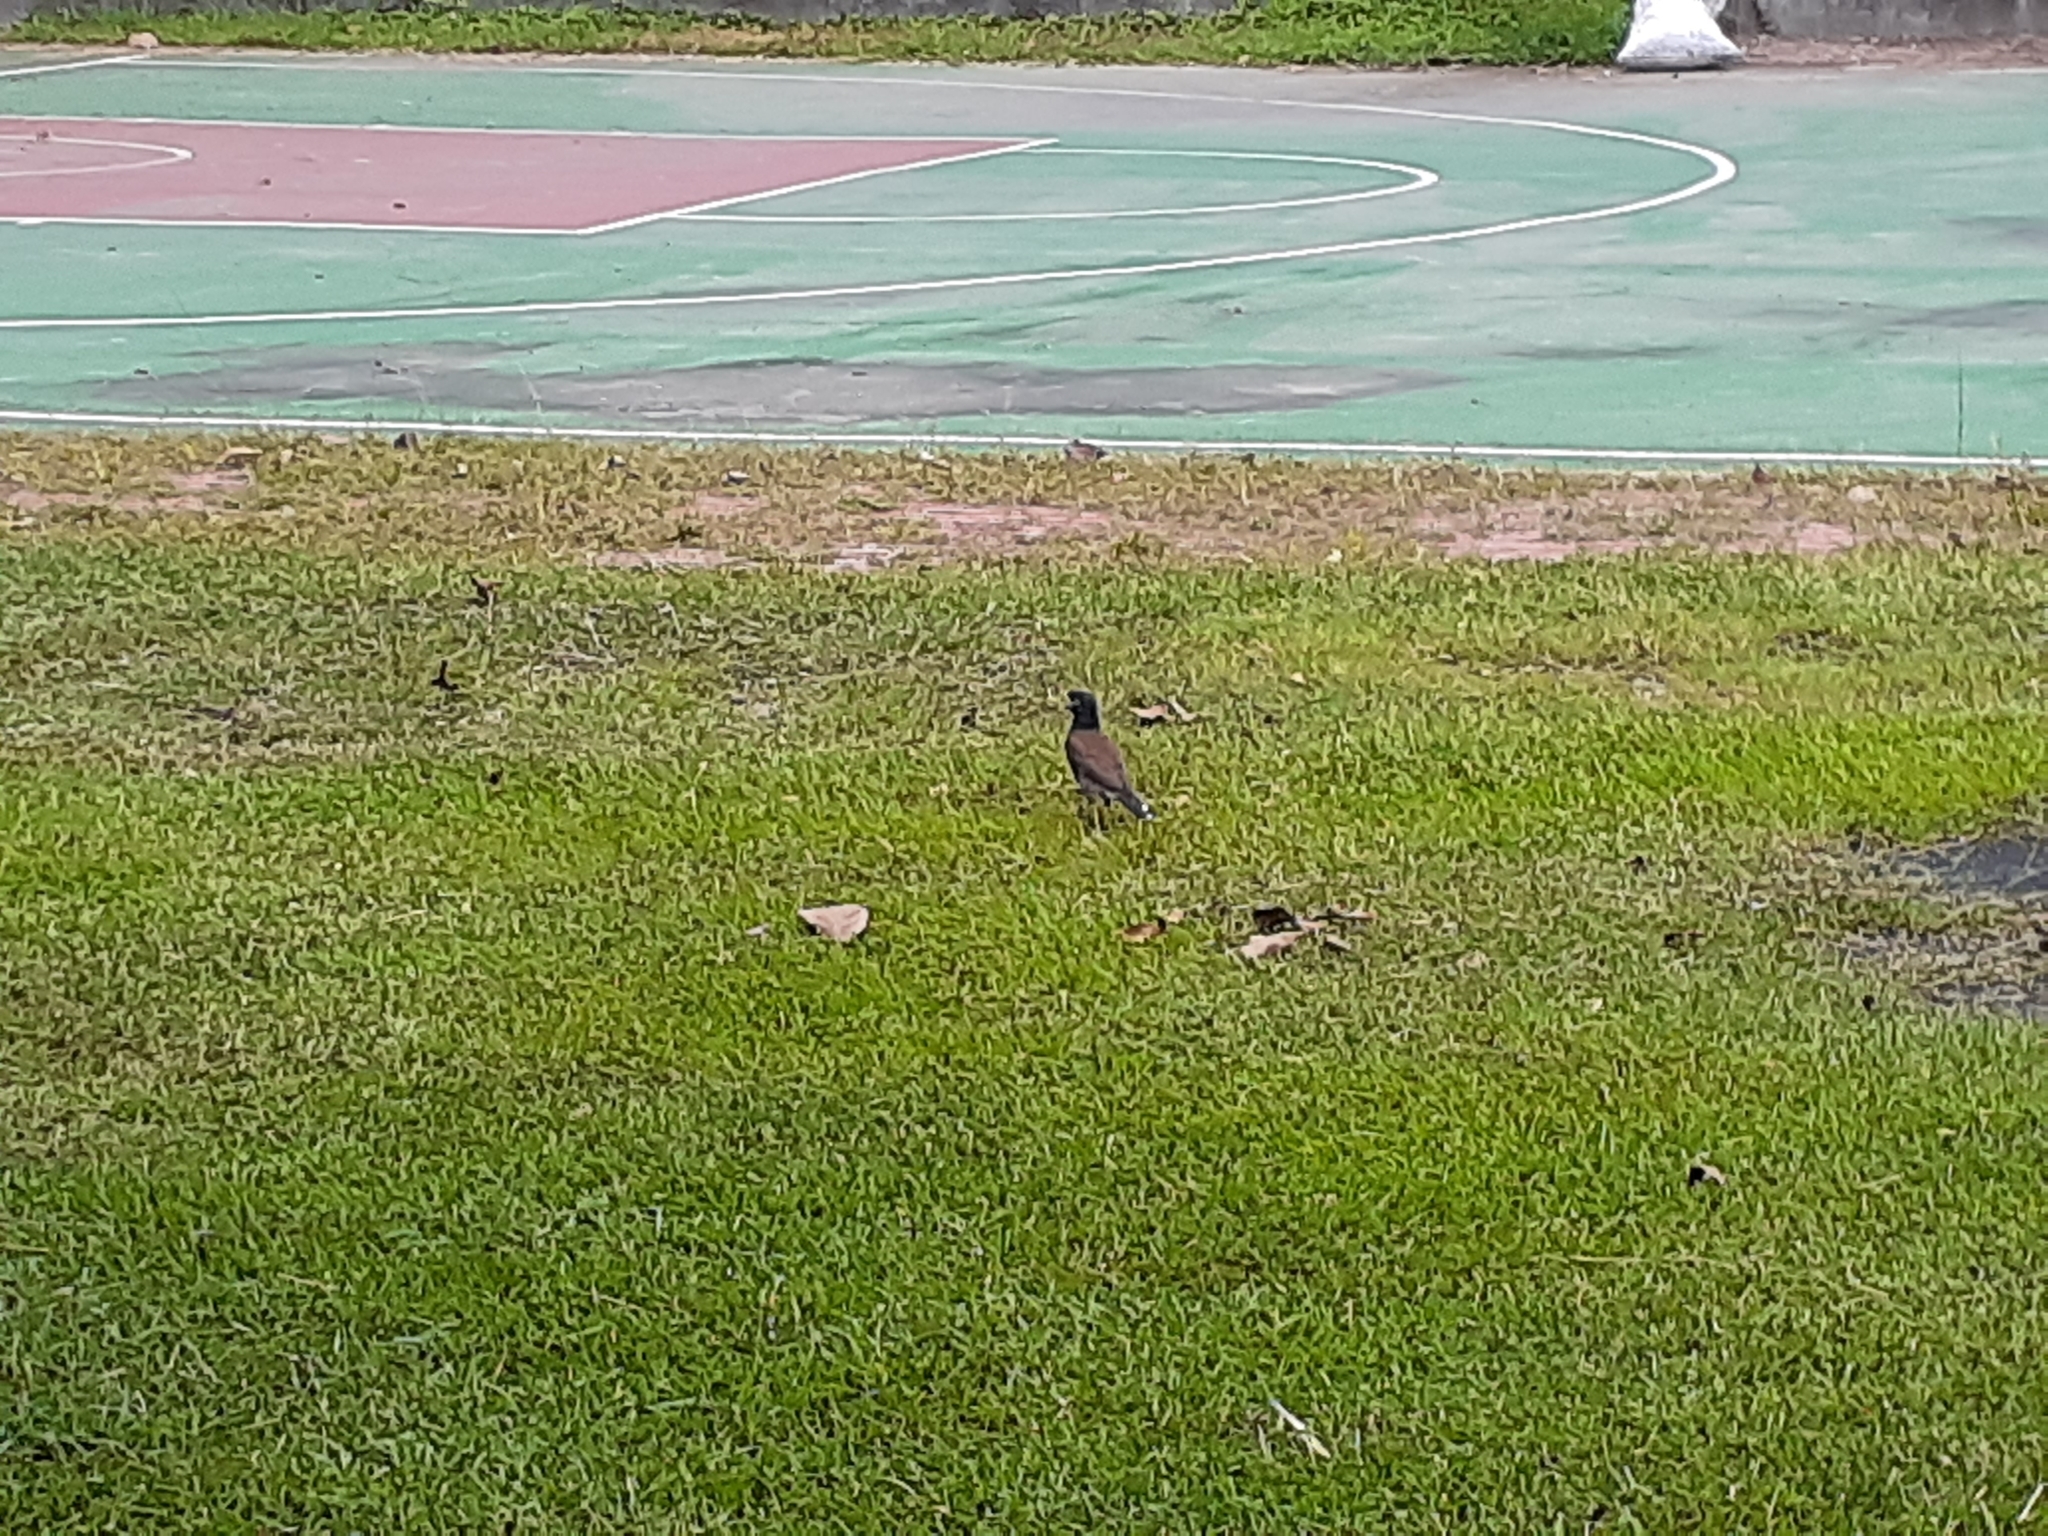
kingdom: Animalia
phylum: Chordata
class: Aves
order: Passeriformes
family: Sturnidae
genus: Acridotheres
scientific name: Acridotheres tristis
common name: Common myna
